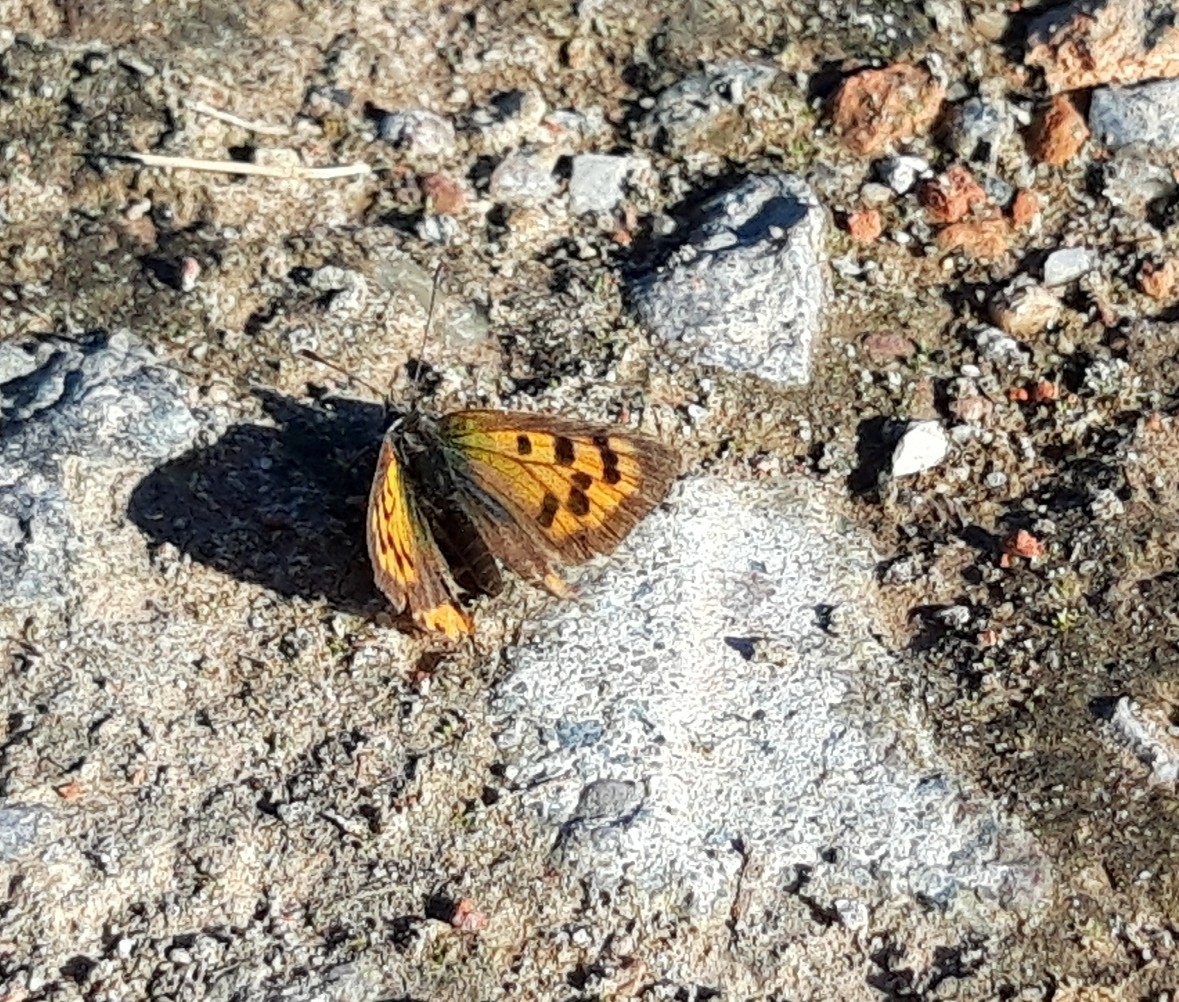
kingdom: Animalia
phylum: Arthropoda
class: Insecta
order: Lepidoptera
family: Lycaenidae
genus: Lycaena
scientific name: Lycaena phlaeas
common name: Small copper
